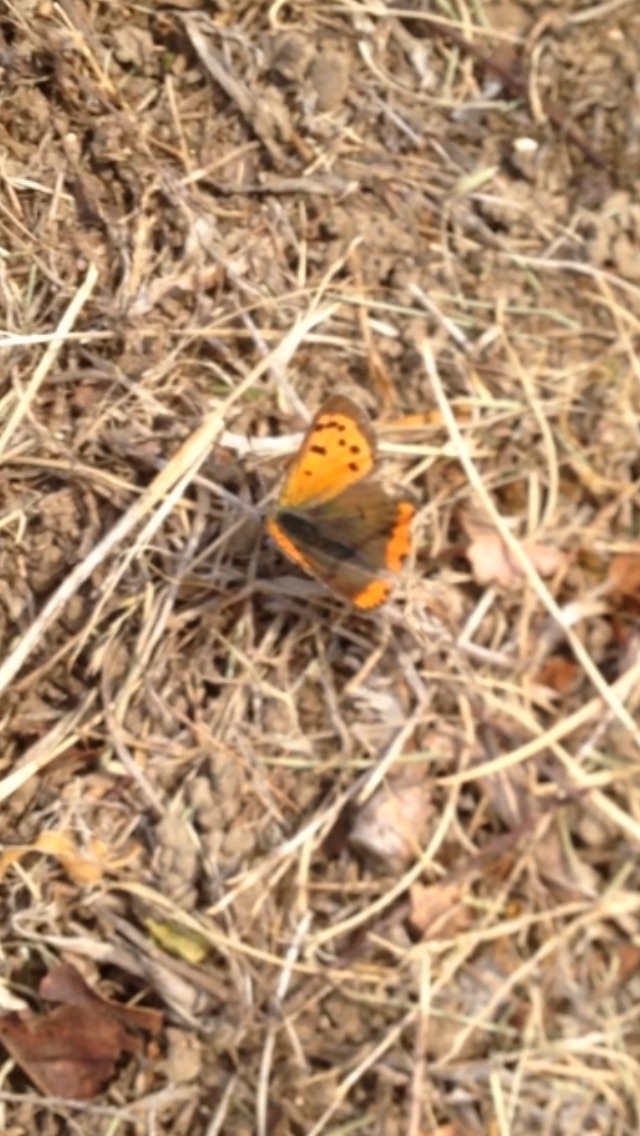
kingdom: Animalia
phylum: Arthropoda
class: Insecta
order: Lepidoptera
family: Lycaenidae
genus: Lycaena
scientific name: Lycaena hypophlaeas
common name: American copper
